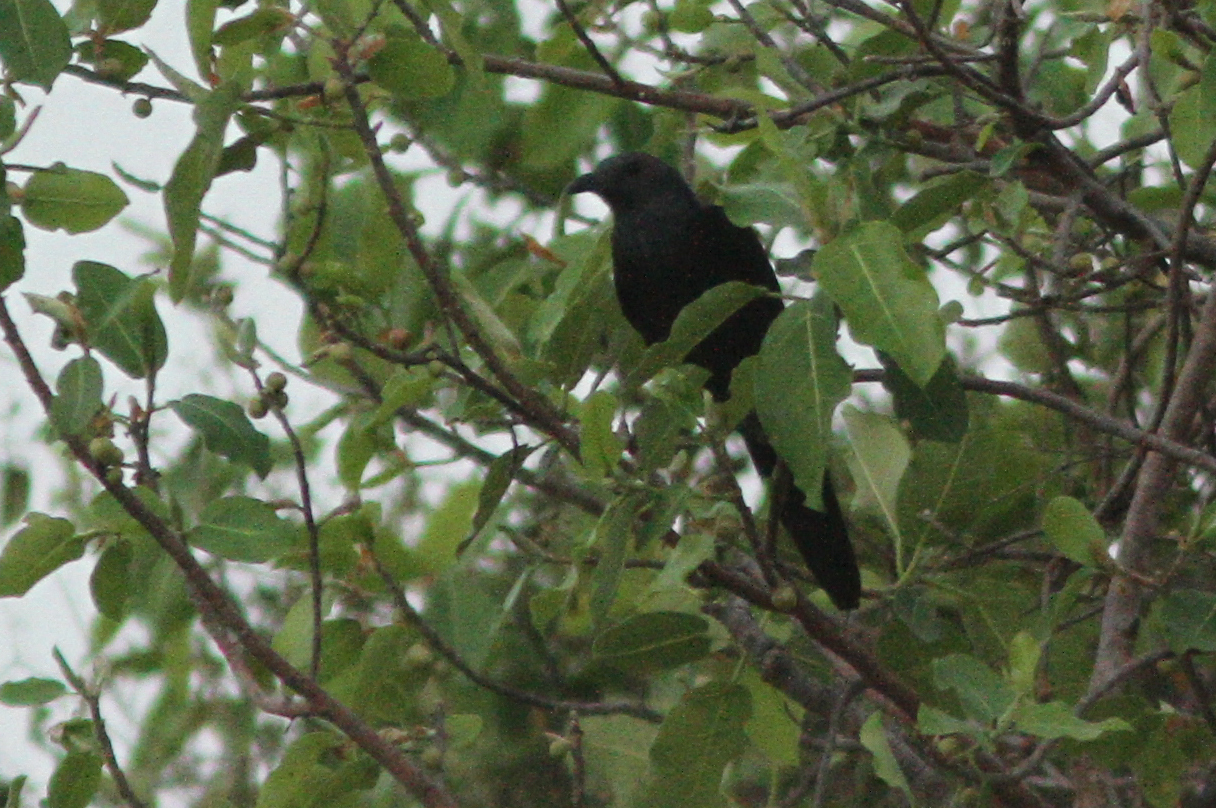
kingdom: Animalia
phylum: Chordata
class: Aves
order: Passeriformes
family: Sturnidae
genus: Onychognathus
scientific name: Onychognathus neumanni
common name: Neumann's starling
